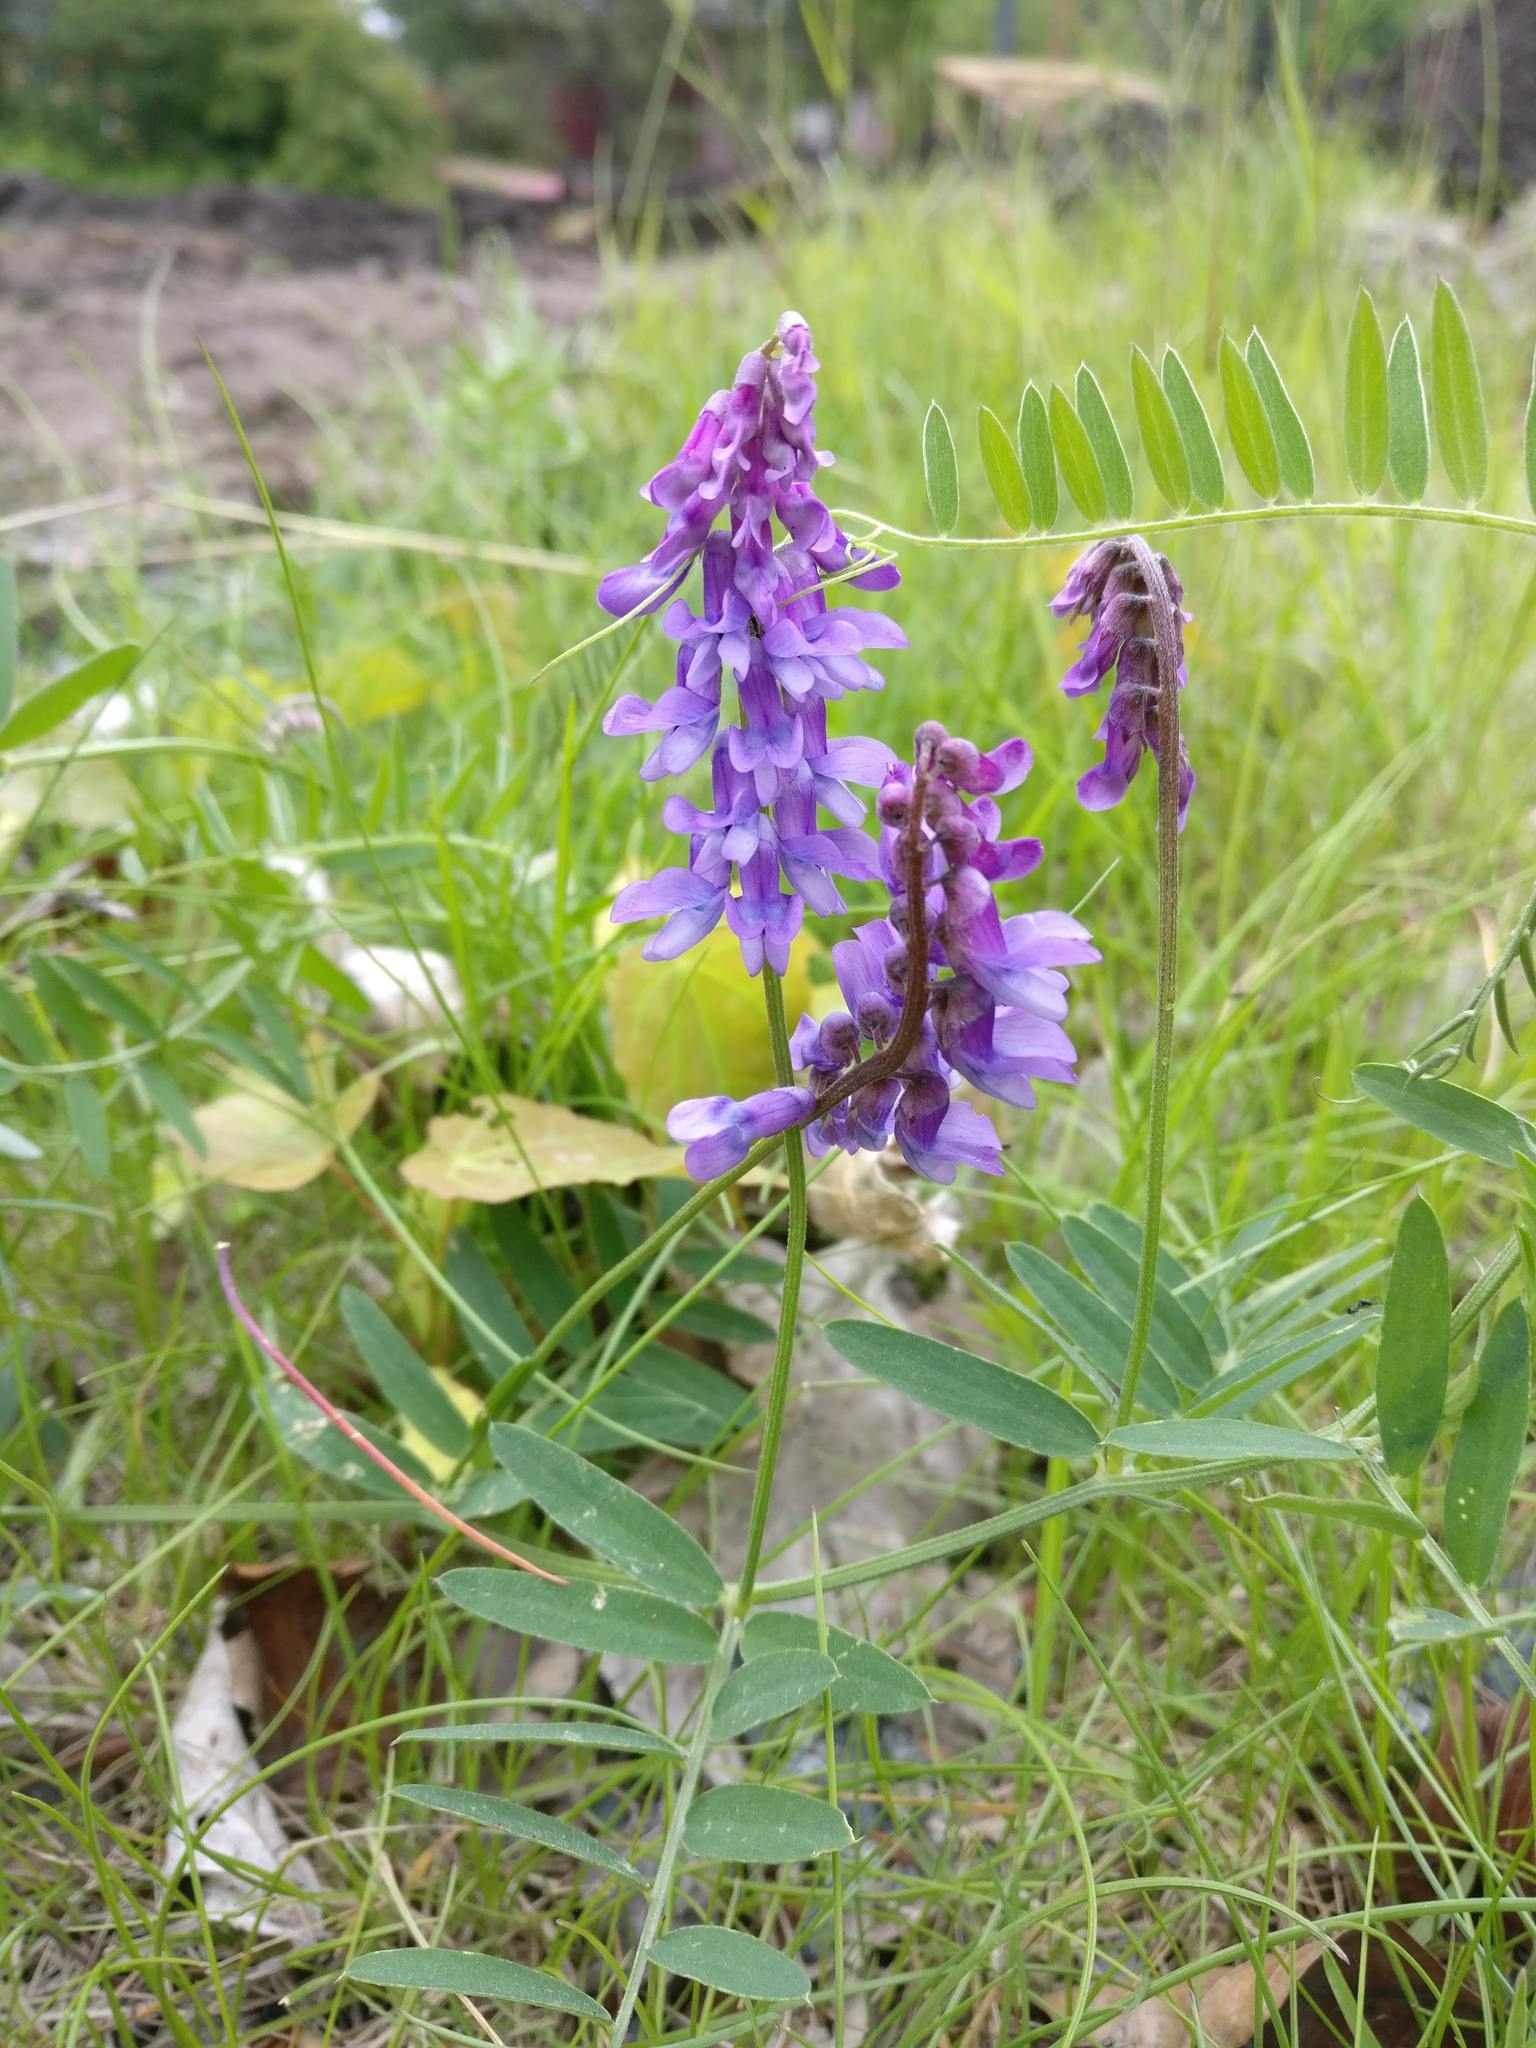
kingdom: Plantae
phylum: Tracheophyta
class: Magnoliopsida
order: Fabales
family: Fabaceae
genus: Vicia
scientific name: Vicia cracca
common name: Bird vetch
